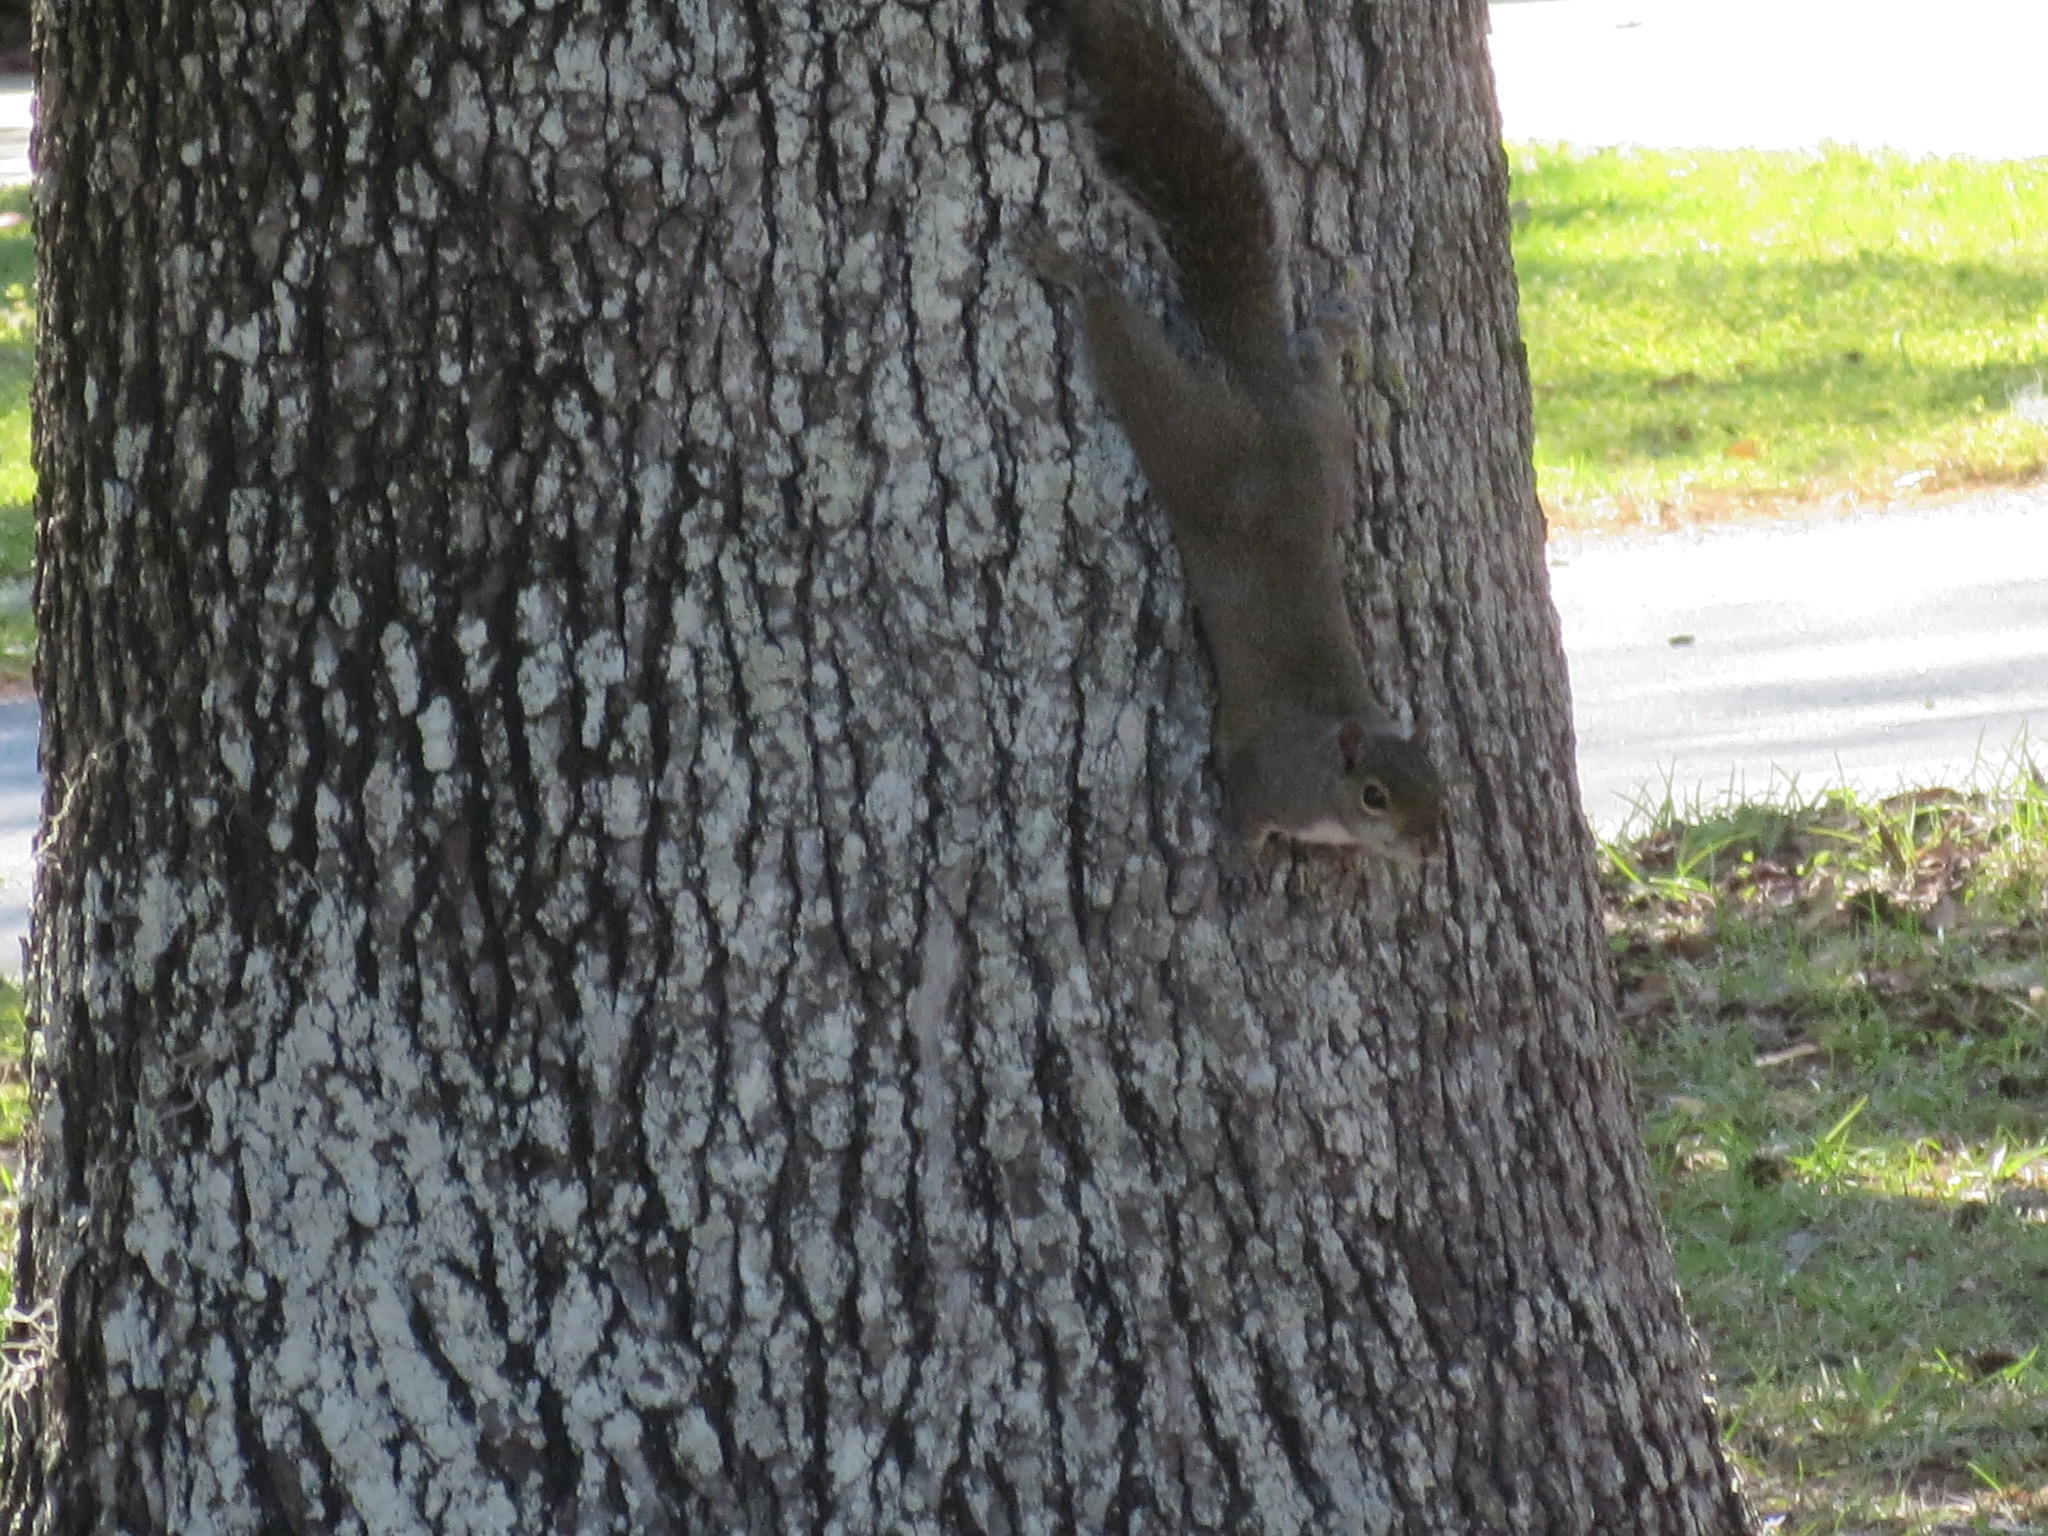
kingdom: Animalia
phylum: Chordata
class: Mammalia
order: Rodentia
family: Sciuridae
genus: Sciurus
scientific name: Sciurus carolinensis
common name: Eastern gray squirrel
